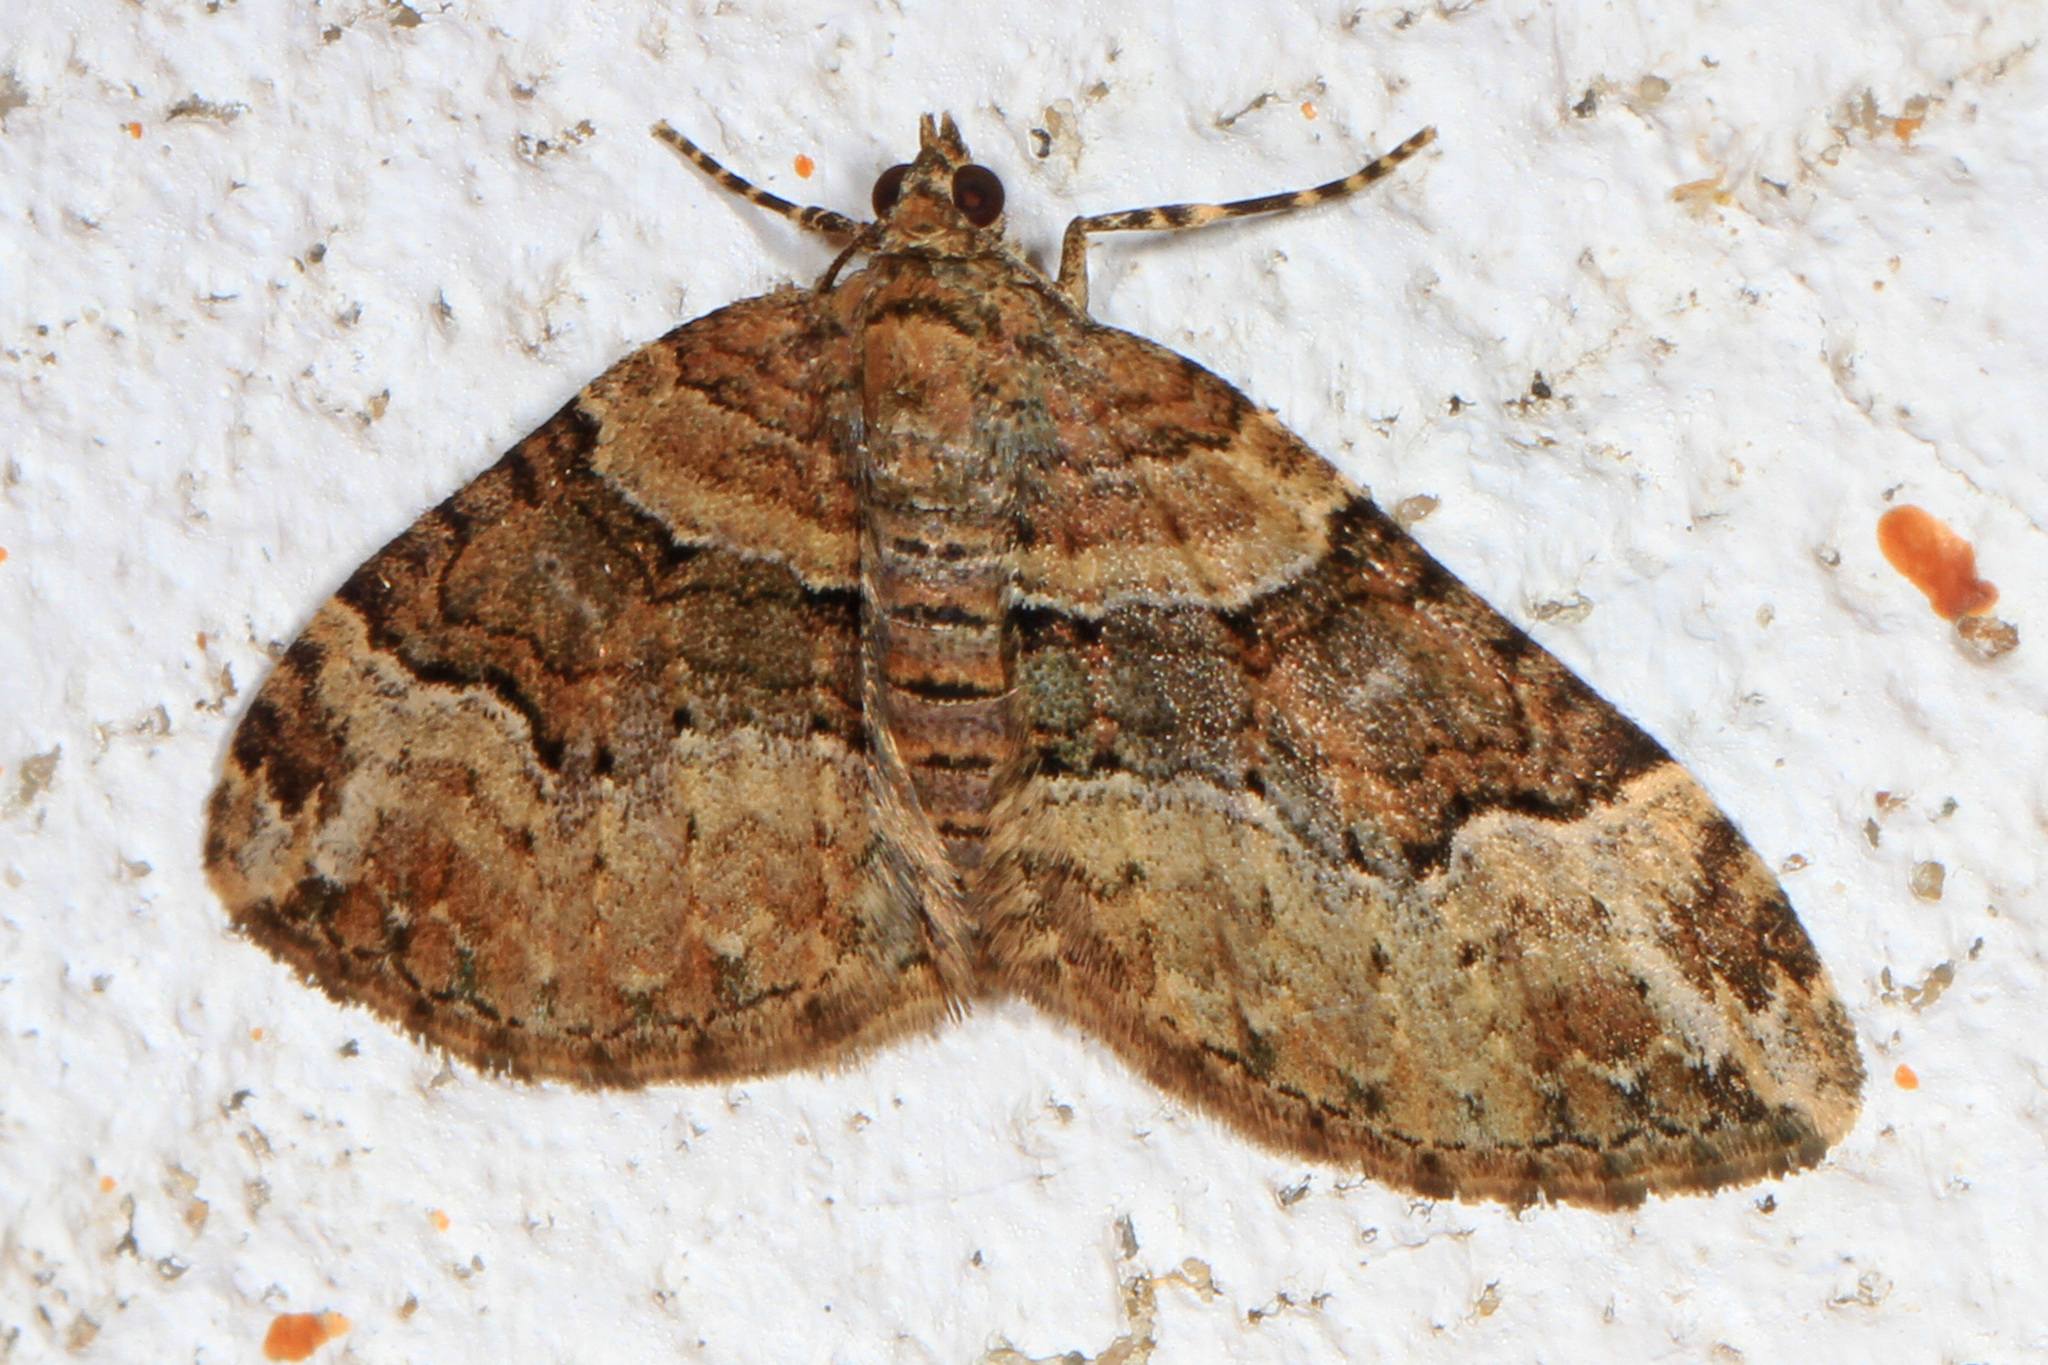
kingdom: Animalia
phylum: Arthropoda
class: Insecta
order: Lepidoptera
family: Geometridae
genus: Xanthorhoe
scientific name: Xanthorhoe ferrugata
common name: Dark-barred twin-spot carpet
